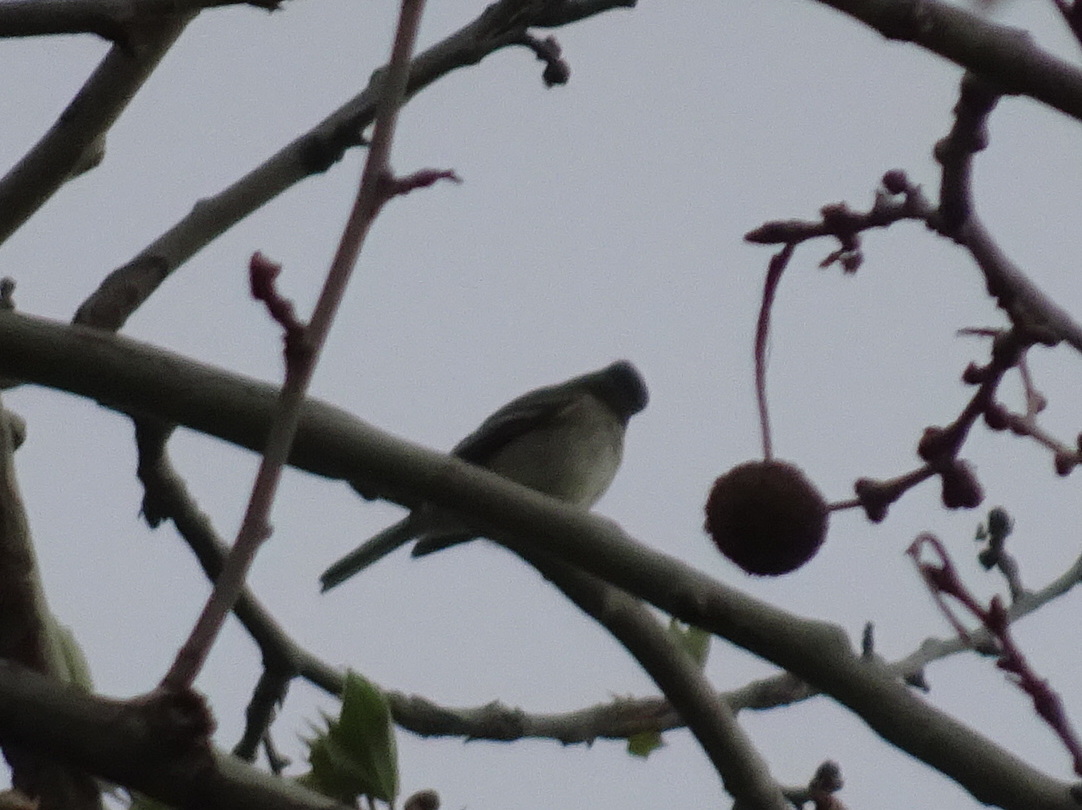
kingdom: Animalia
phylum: Chordata
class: Aves
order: Passeriformes
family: Tyrannidae
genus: Empidonax
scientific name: Empidonax minimus
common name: Least flycatcher
